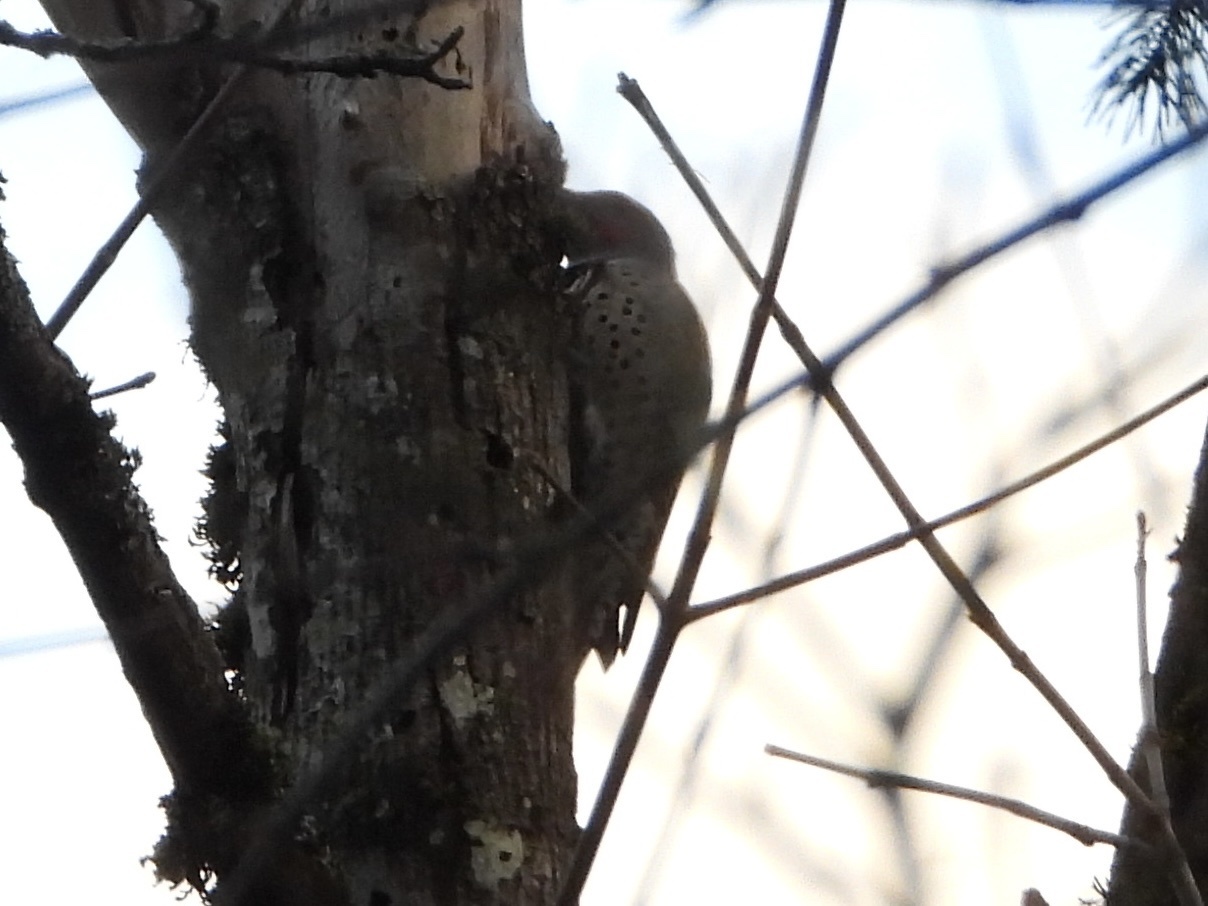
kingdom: Animalia
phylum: Chordata
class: Aves
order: Piciformes
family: Picidae
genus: Colaptes
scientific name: Colaptes auratus
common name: Northern flicker
